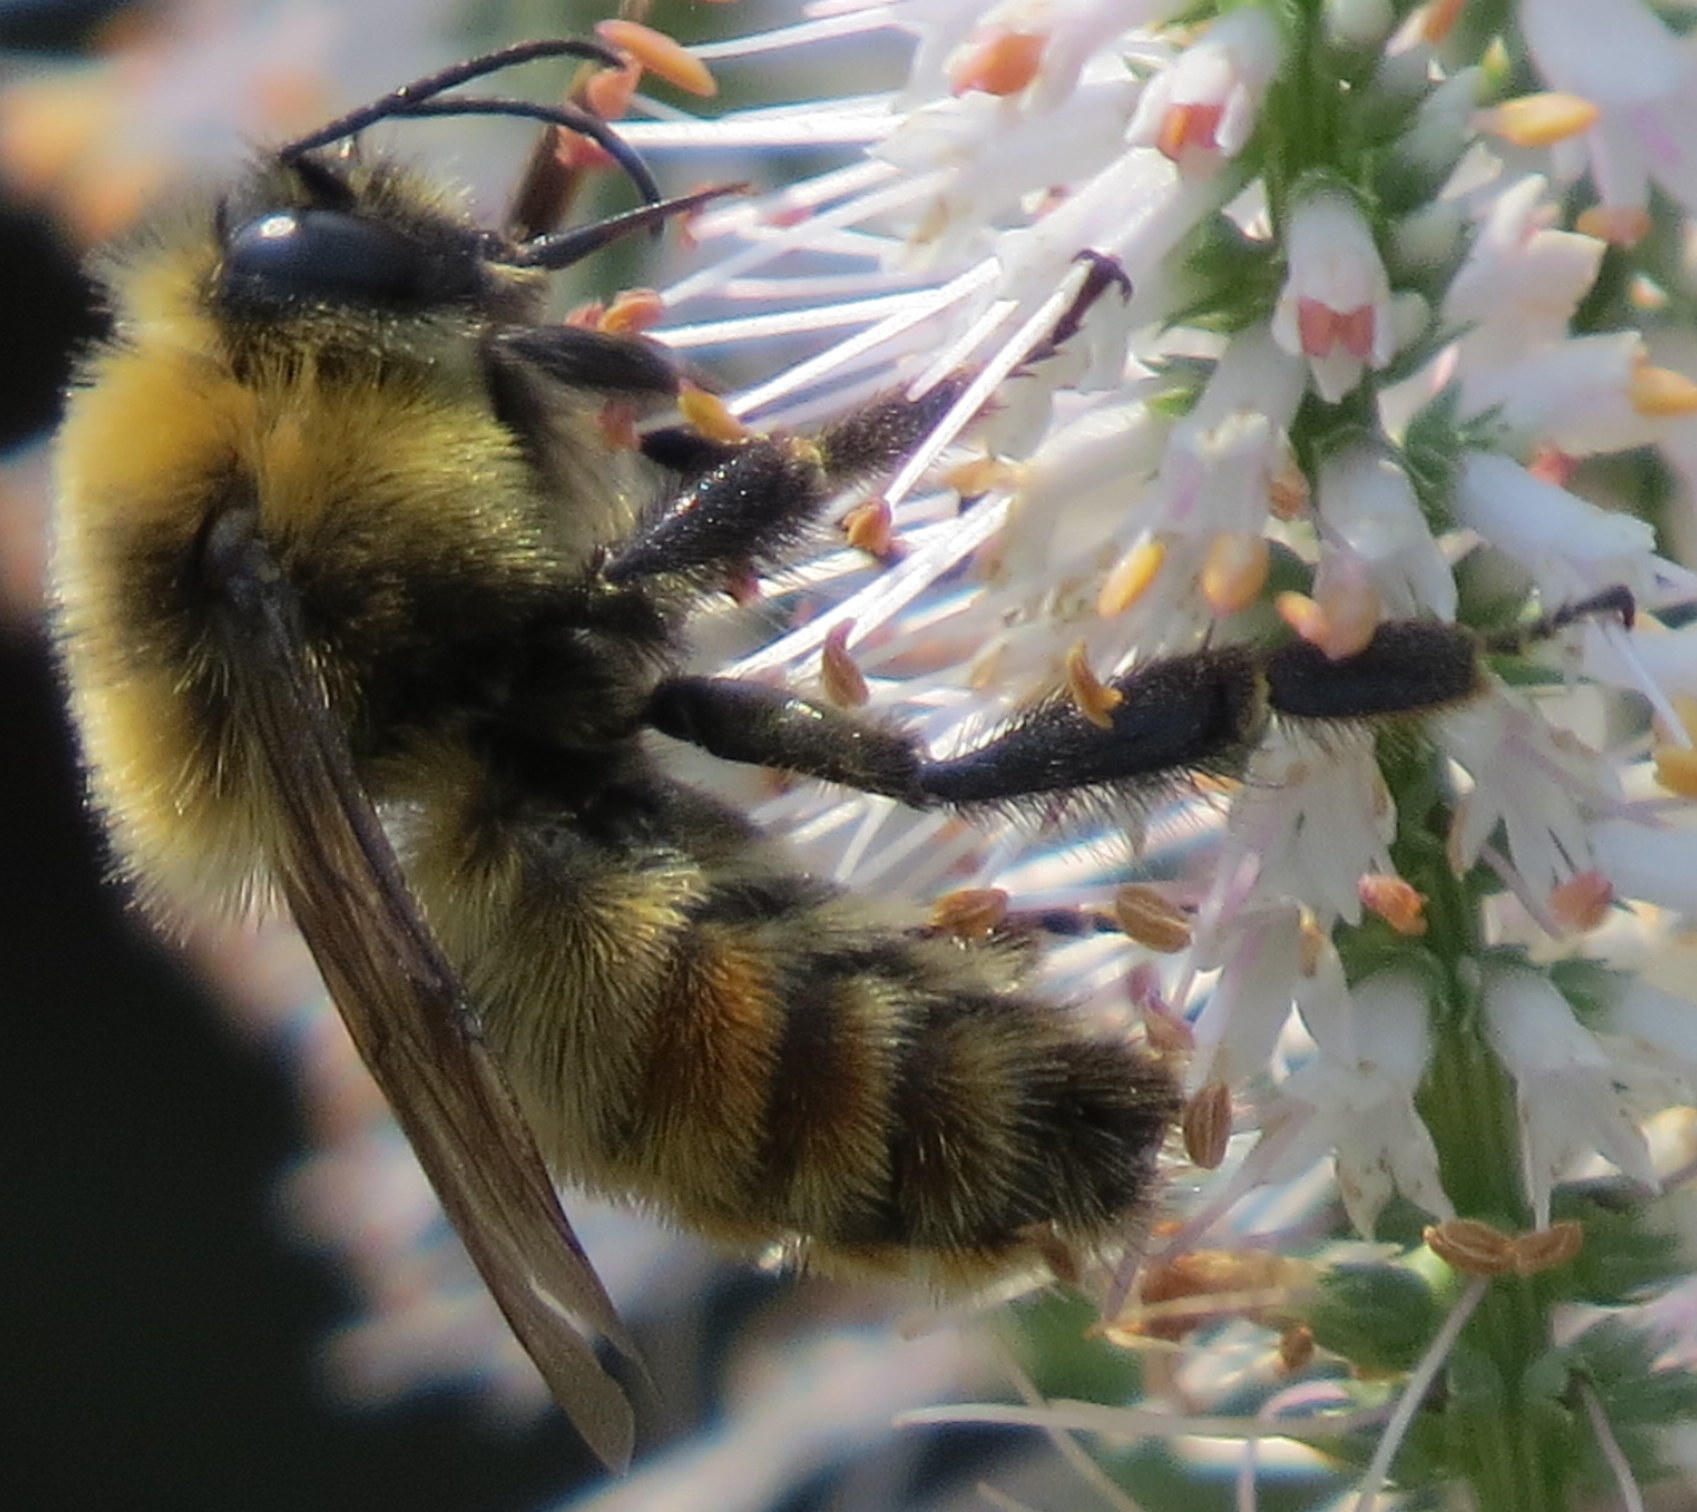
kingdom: Animalia
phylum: Arthropoda
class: Insecta
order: Hymenoptera
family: Apidae
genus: Bombus
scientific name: Bombus rufocinctus
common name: Red-belted bumble bee
